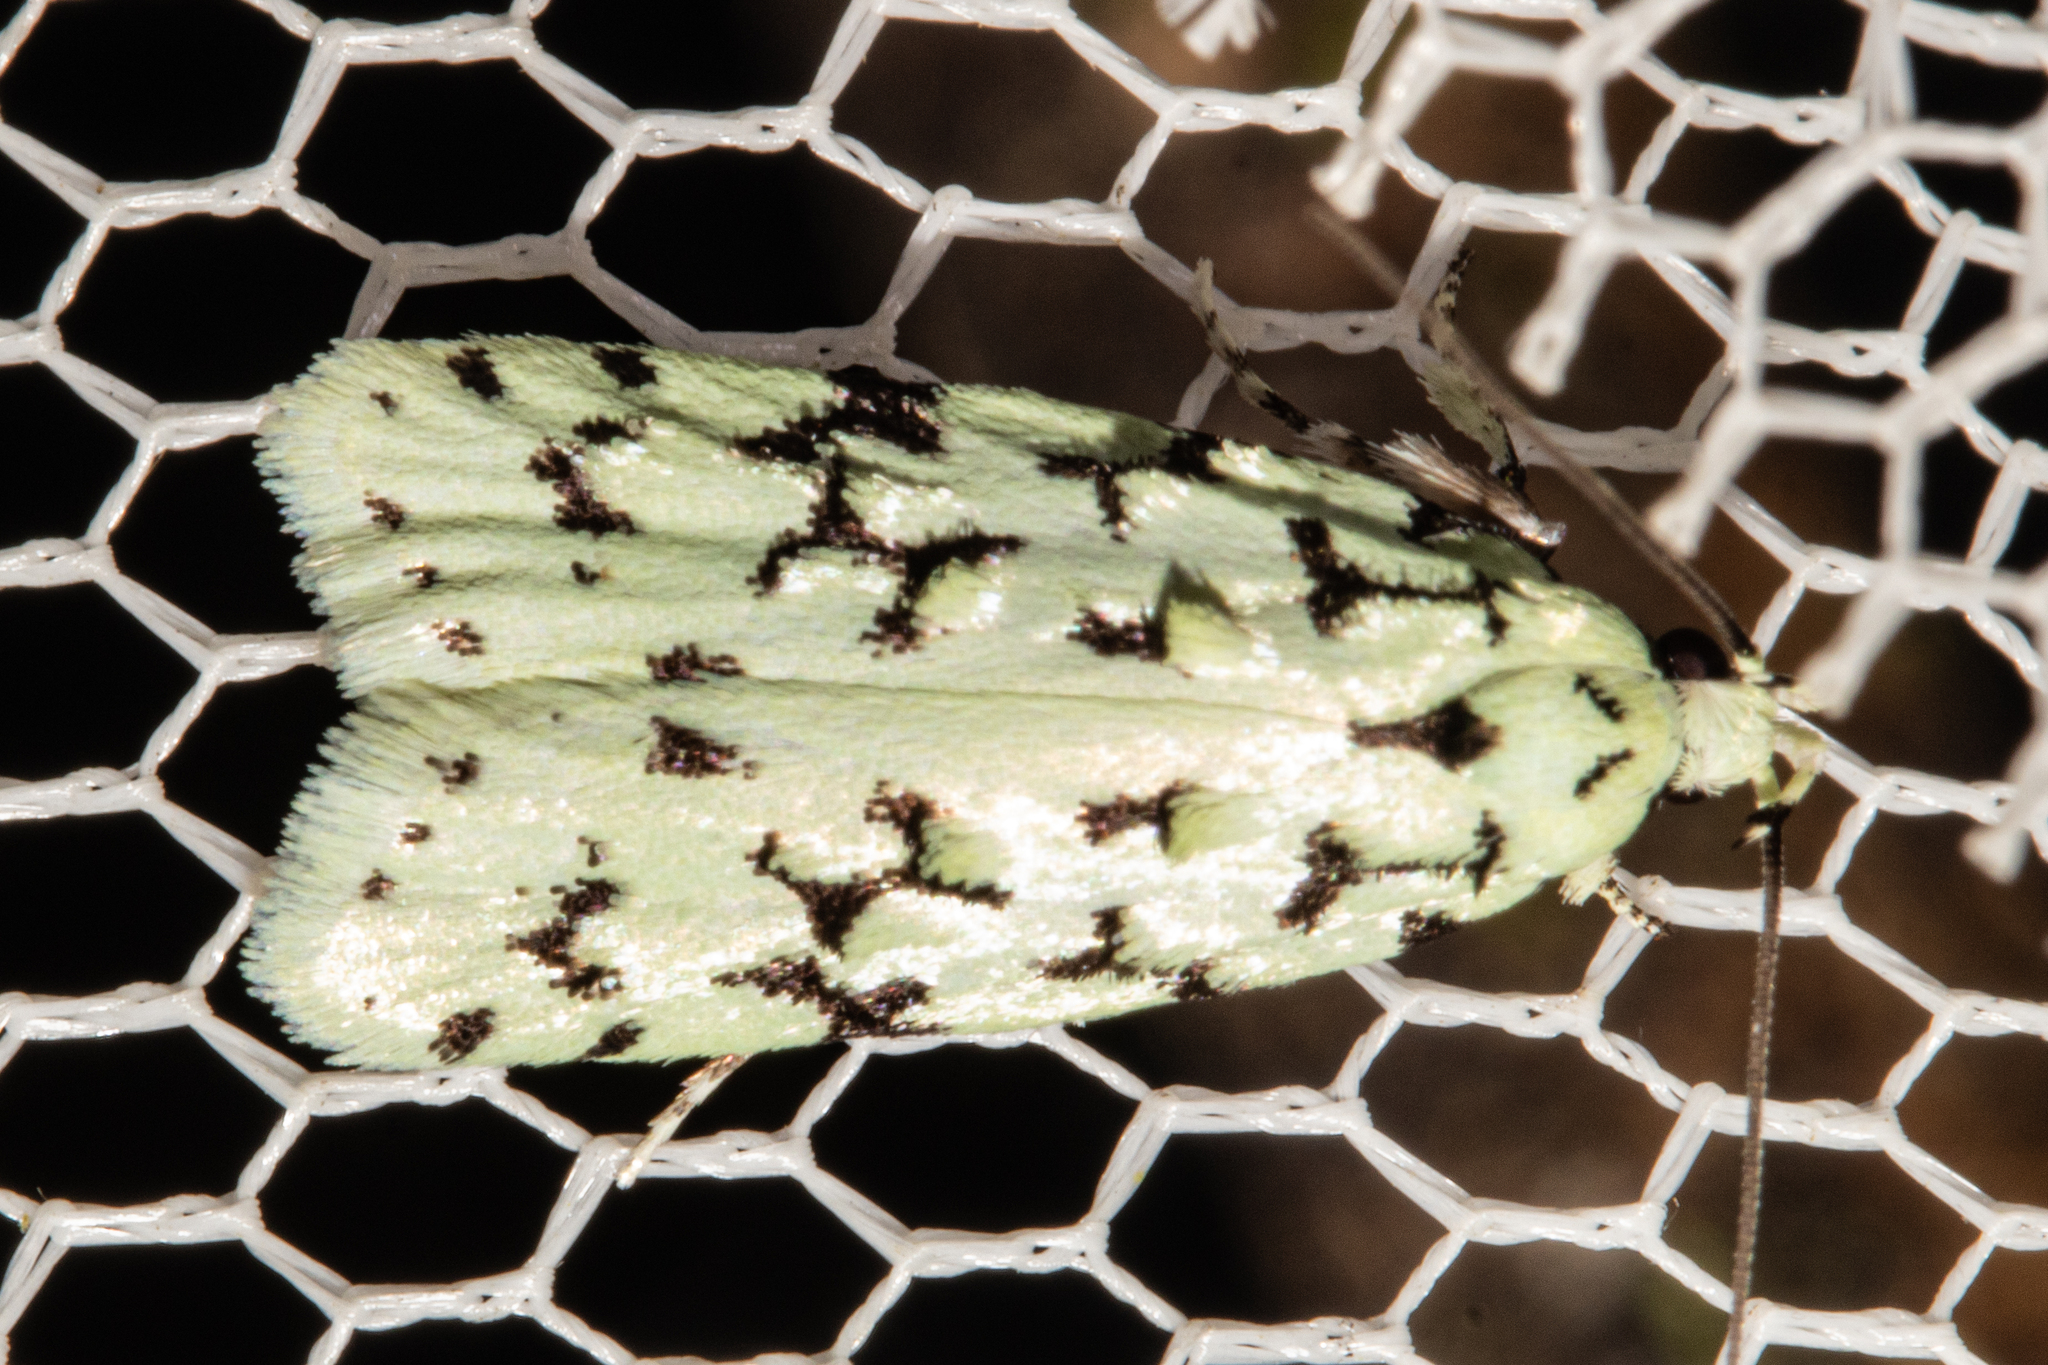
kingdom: Animalia
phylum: Arthropoda
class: Insecta
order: Lepidoptera
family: Oecophoridae
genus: Izatha
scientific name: Izatha huttoni
